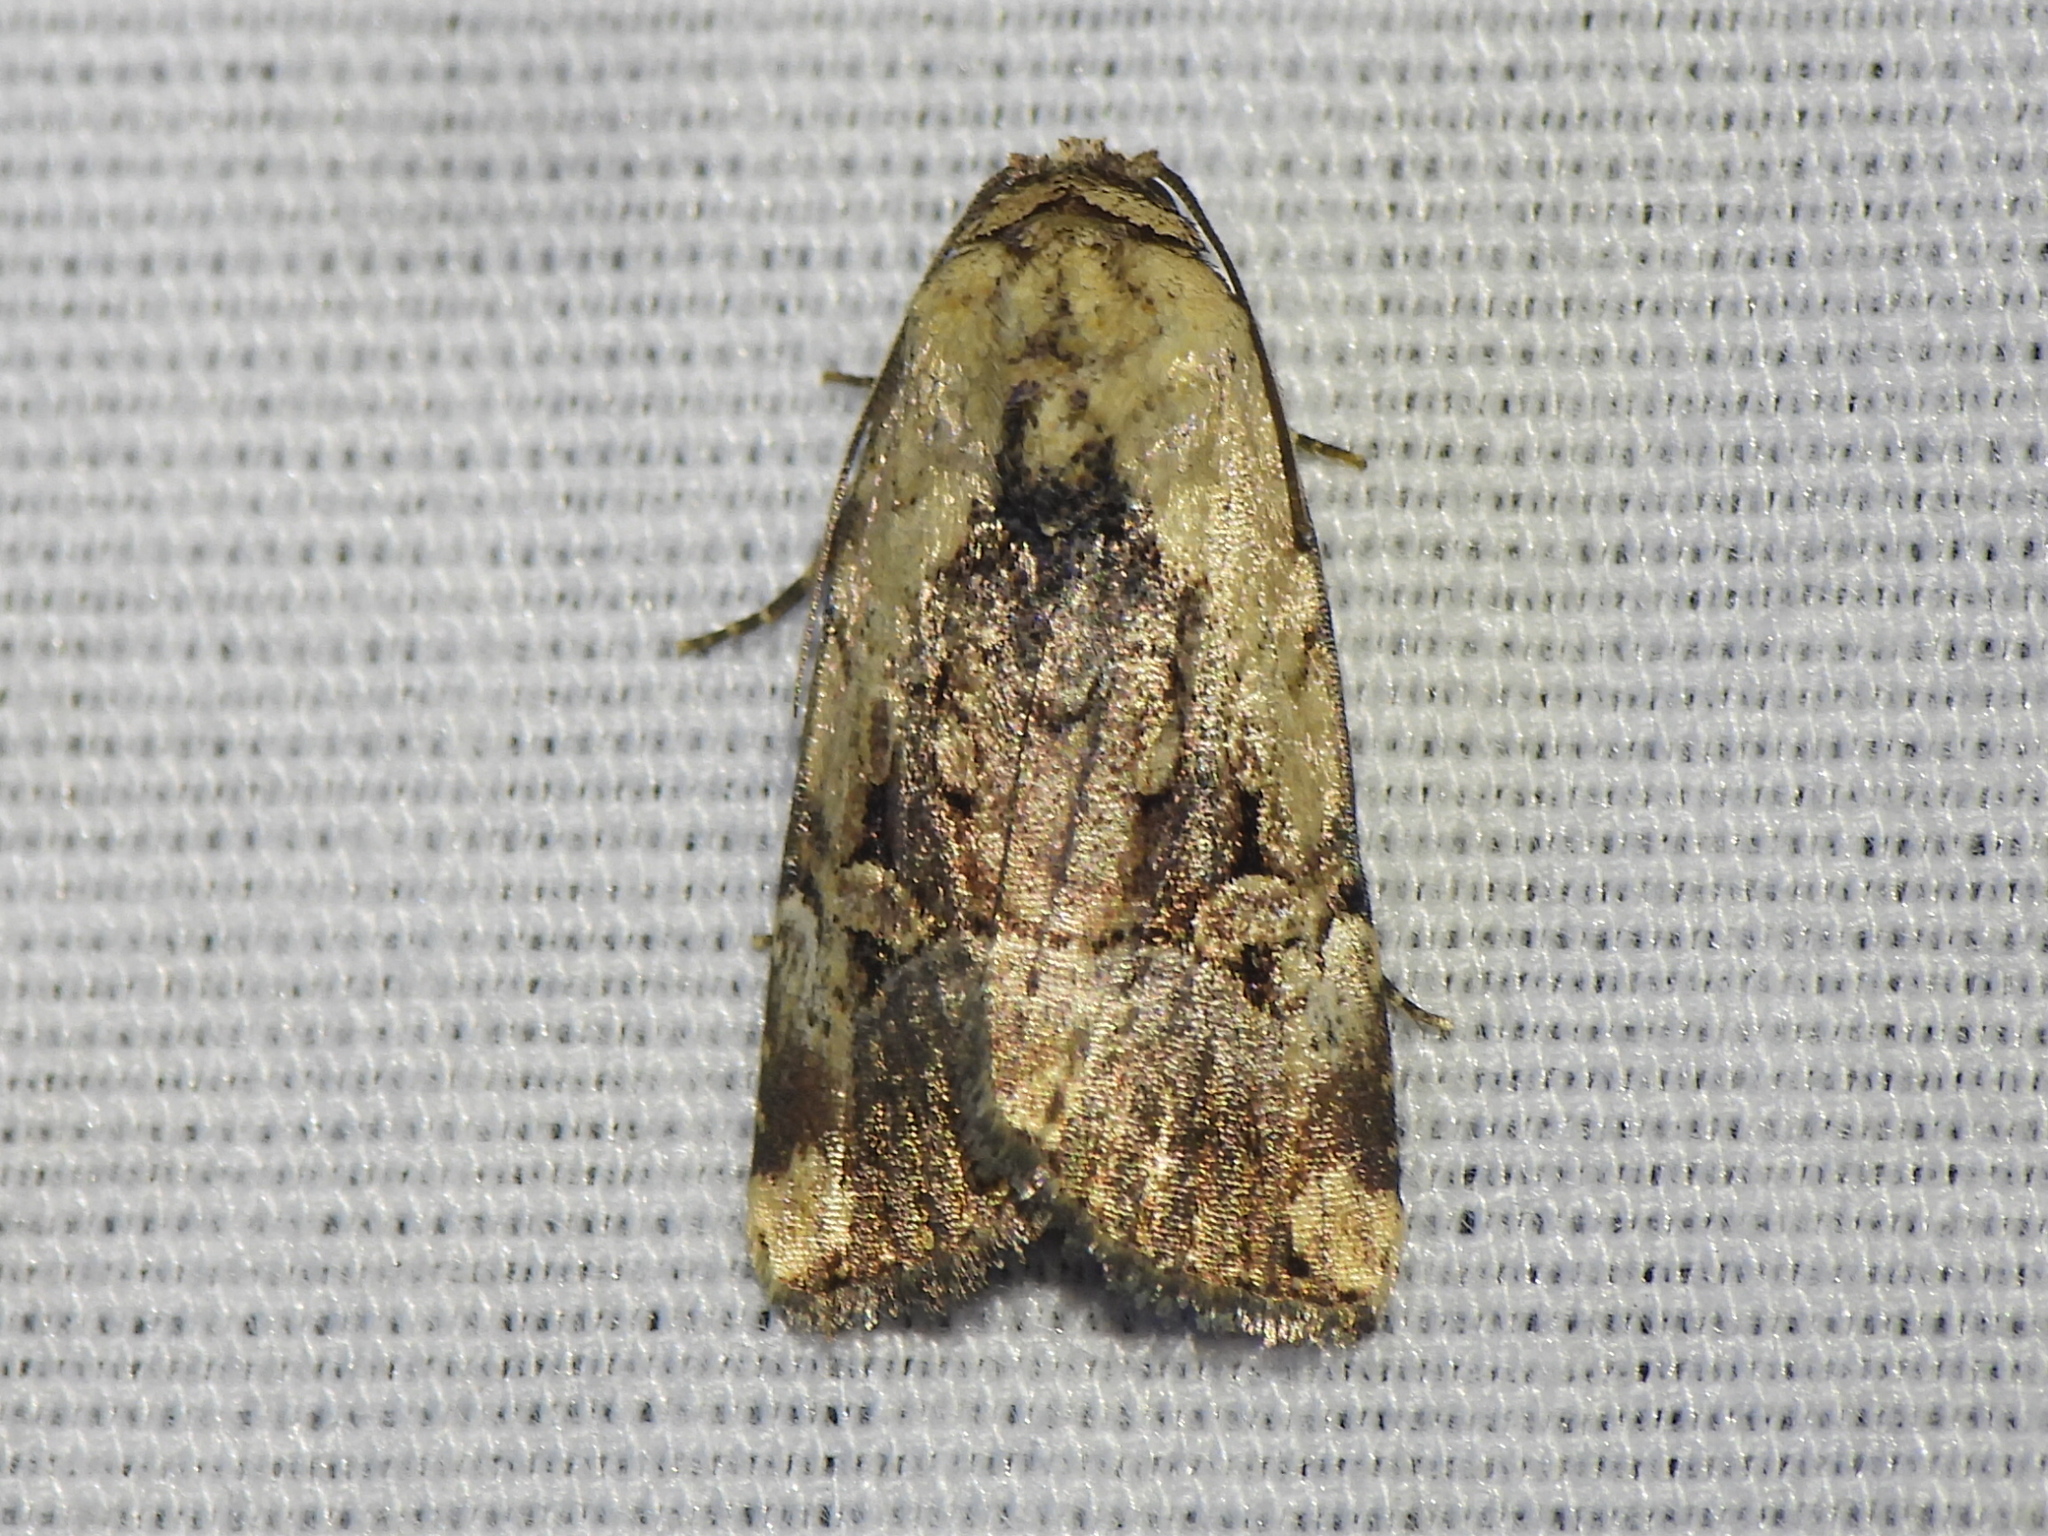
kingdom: Animalia
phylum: Arthropoda
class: Insecta
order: Lepidoptera
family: Noctuidae
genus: Elaphria
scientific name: Elaphria chalcedonia
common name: Chalcedony midget
